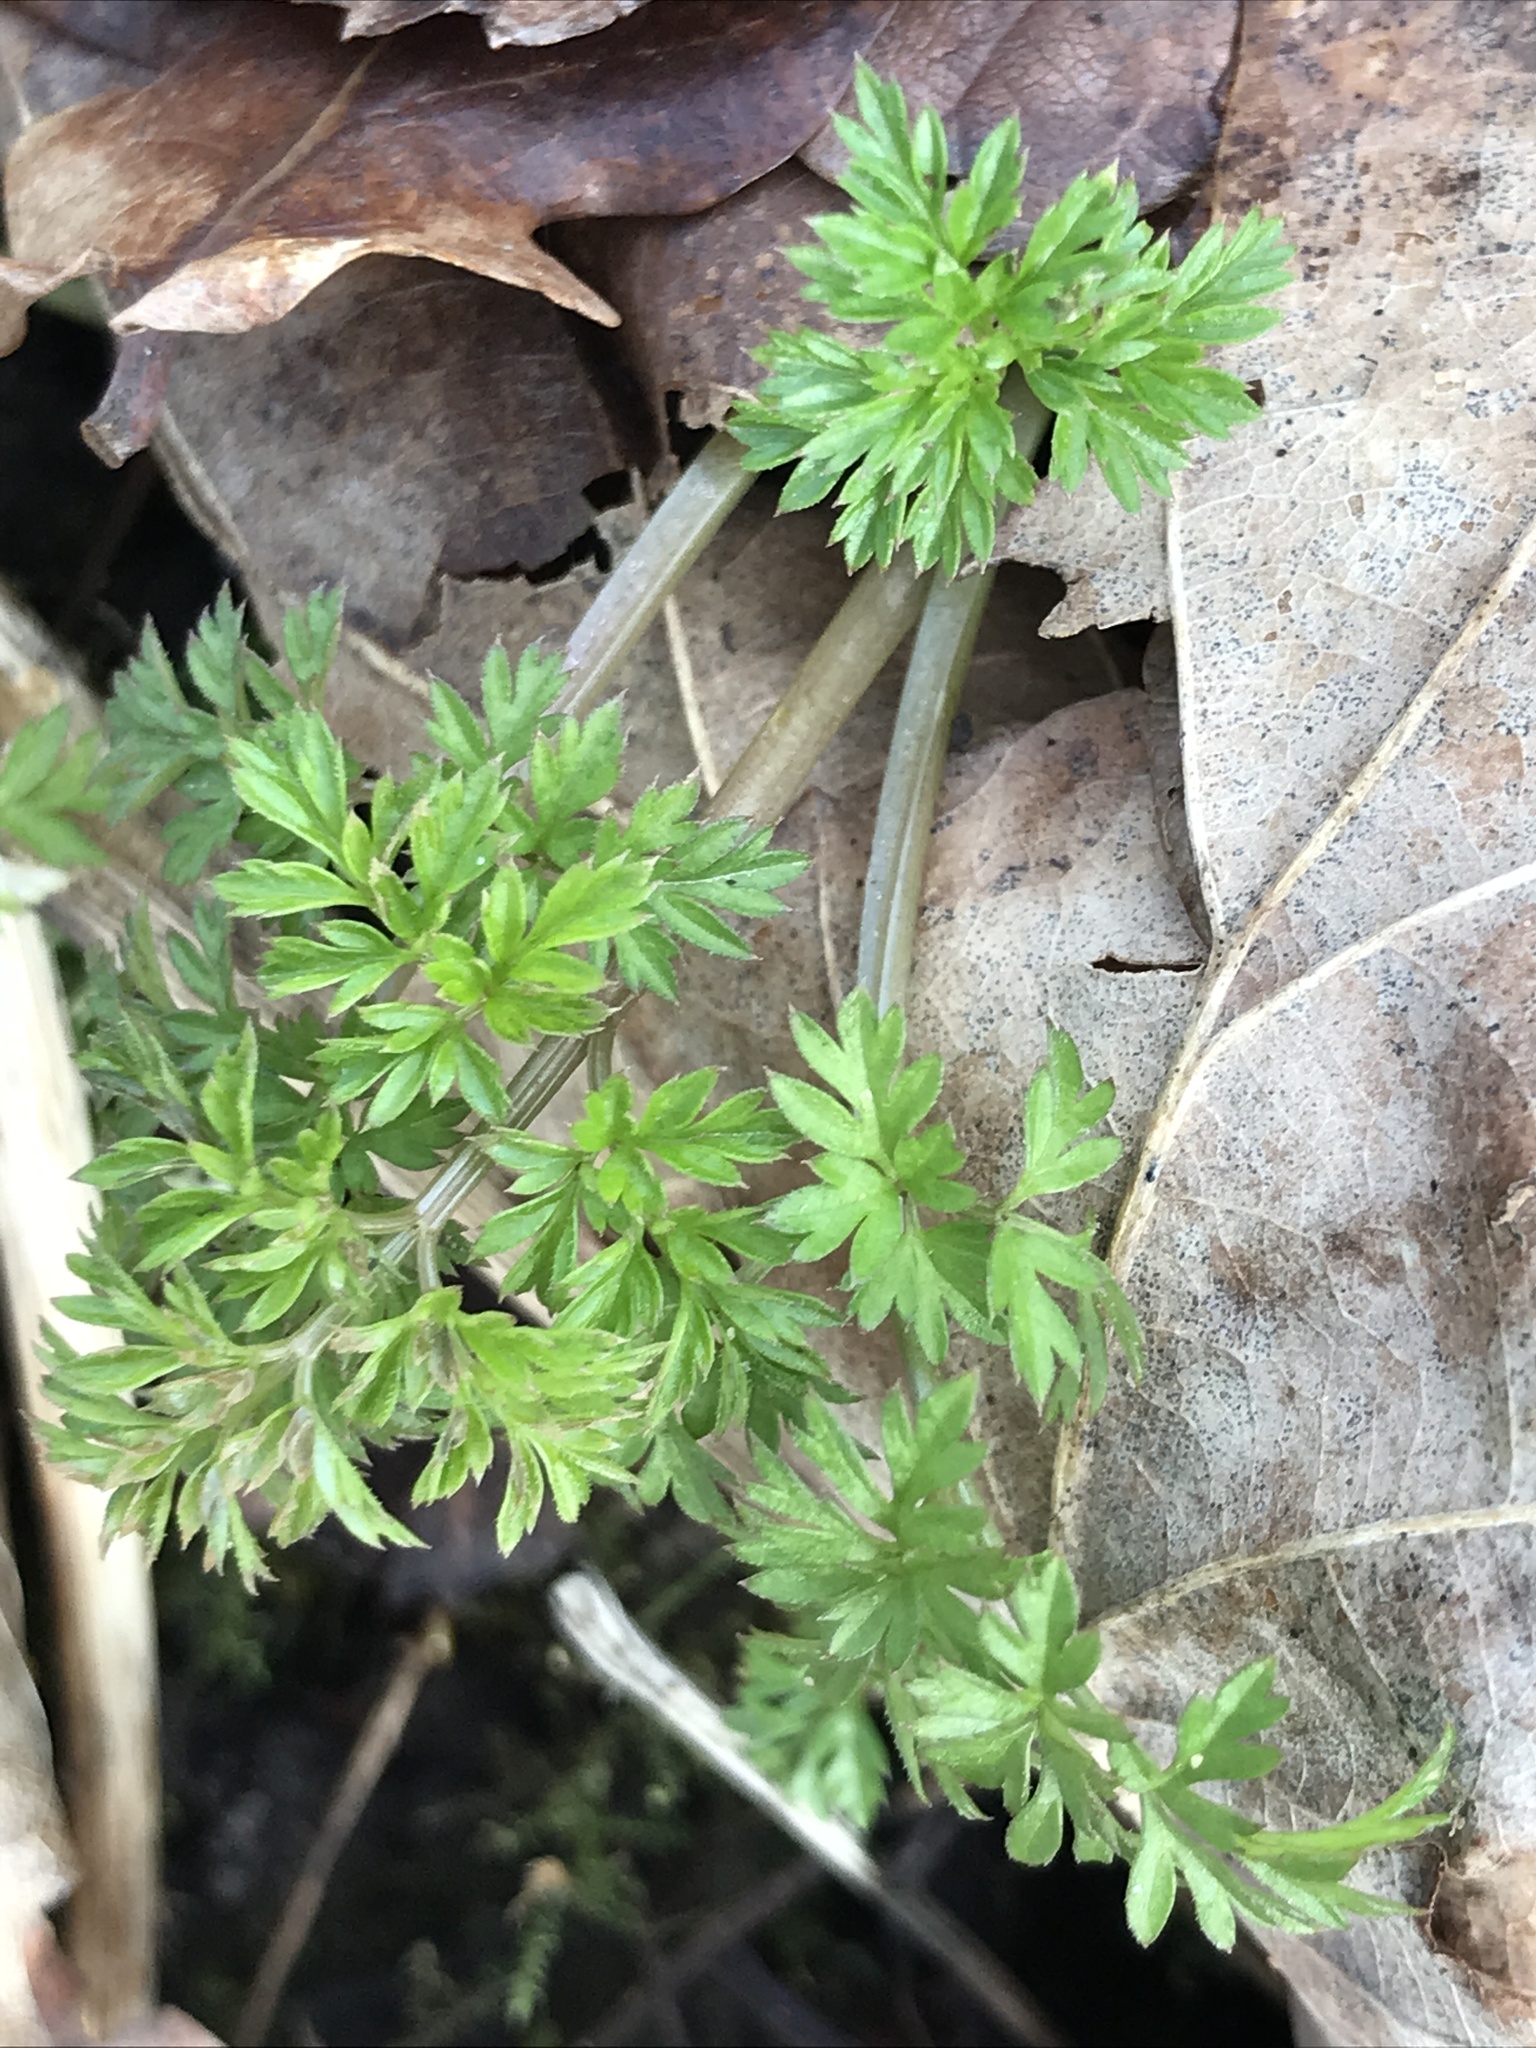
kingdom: Plantae
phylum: Tracheophyta
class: Magnoliopsida
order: Apiales
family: Apiaceae
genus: Anthriscus
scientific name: Anthriscus sylvestris
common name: Cow parsley
